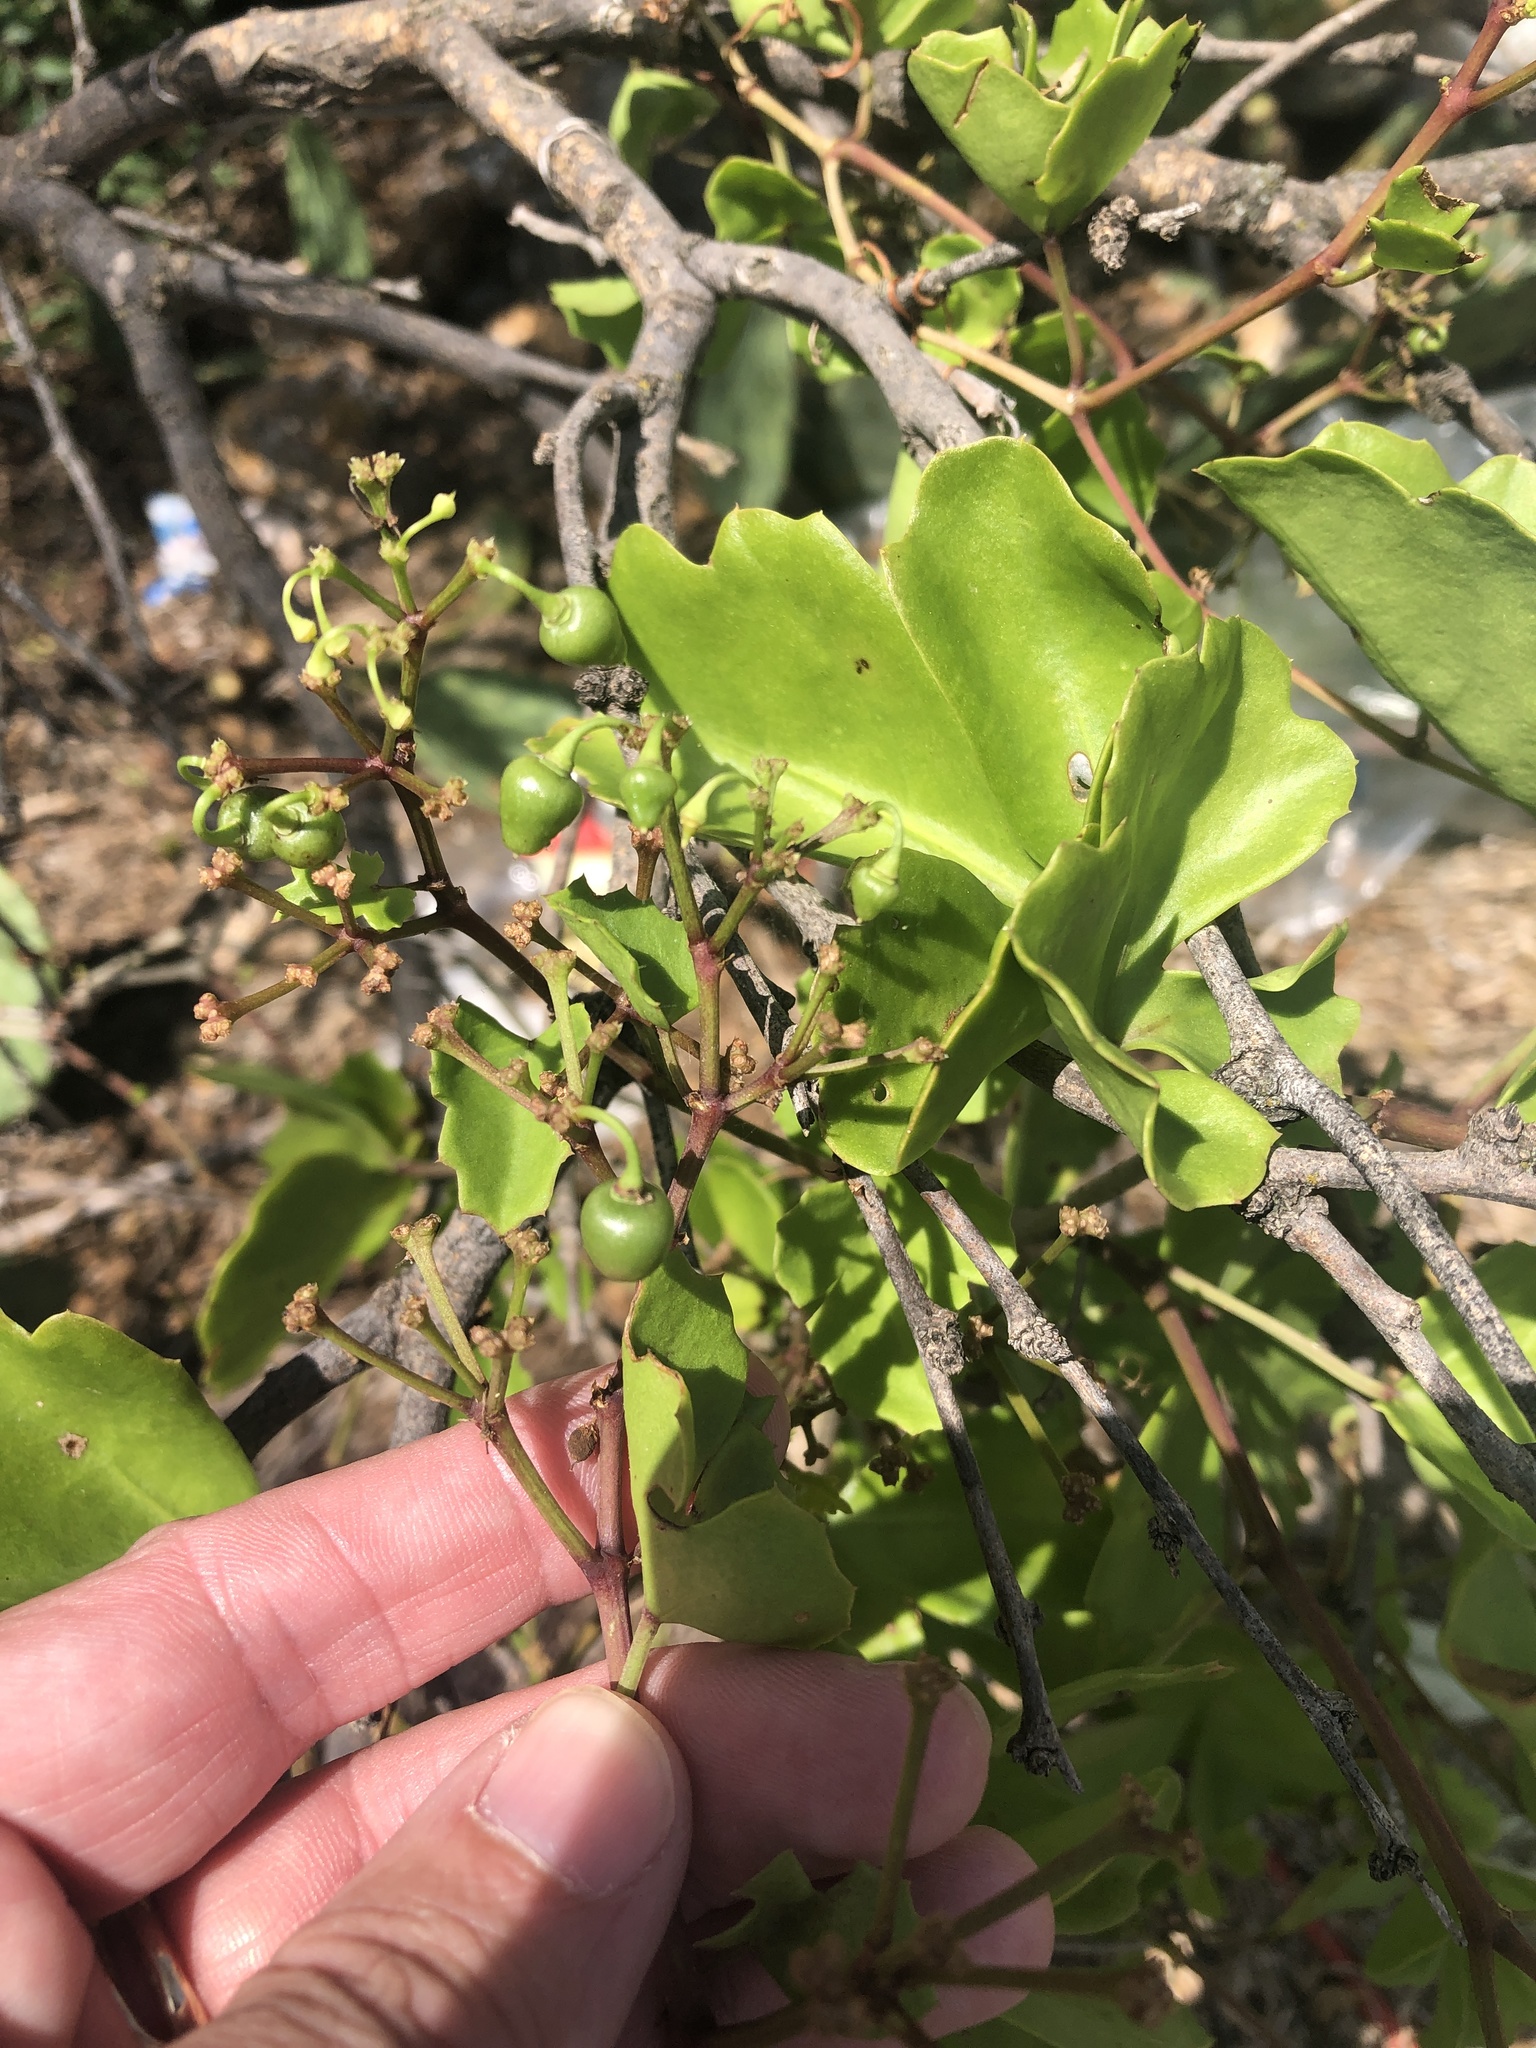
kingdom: Plantae
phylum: Tracheophyta
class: Magnoliopsida
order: Vitales
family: Vitaceae
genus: Cissus
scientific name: Cissus trifoliata
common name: Vine-sorrel
